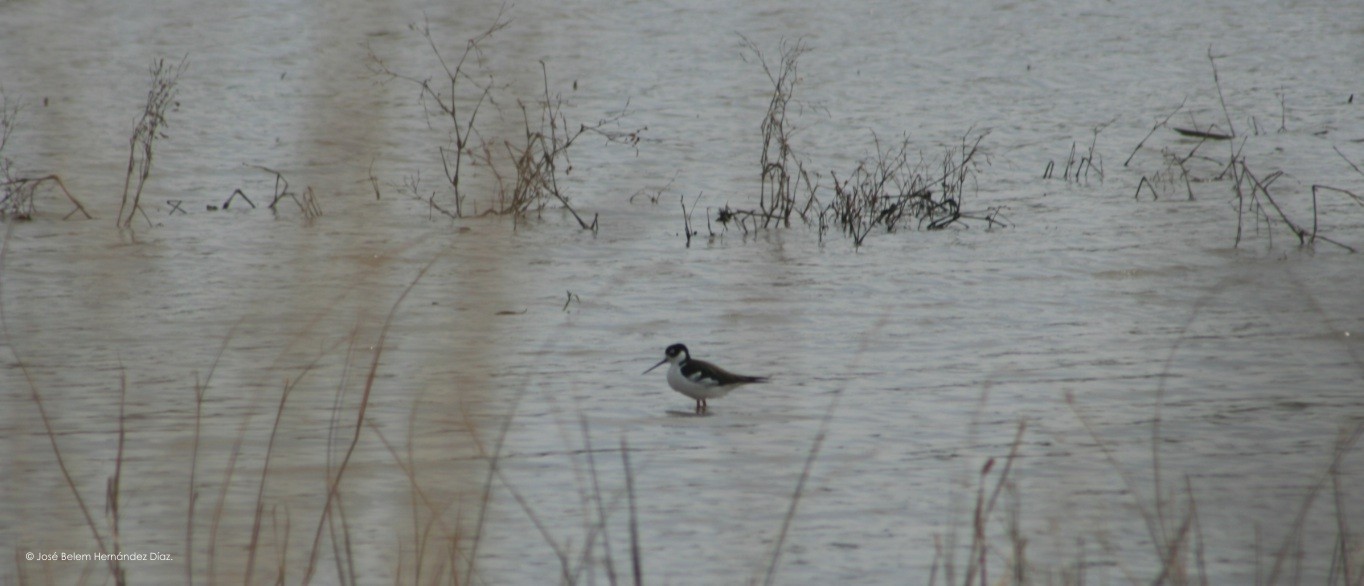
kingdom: Animalia
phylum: Chordata
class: Aves
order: Charadriiformes
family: Recurvirostridae
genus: Himantopus
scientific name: Himantopus mexicanus
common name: Black-necked stilt
